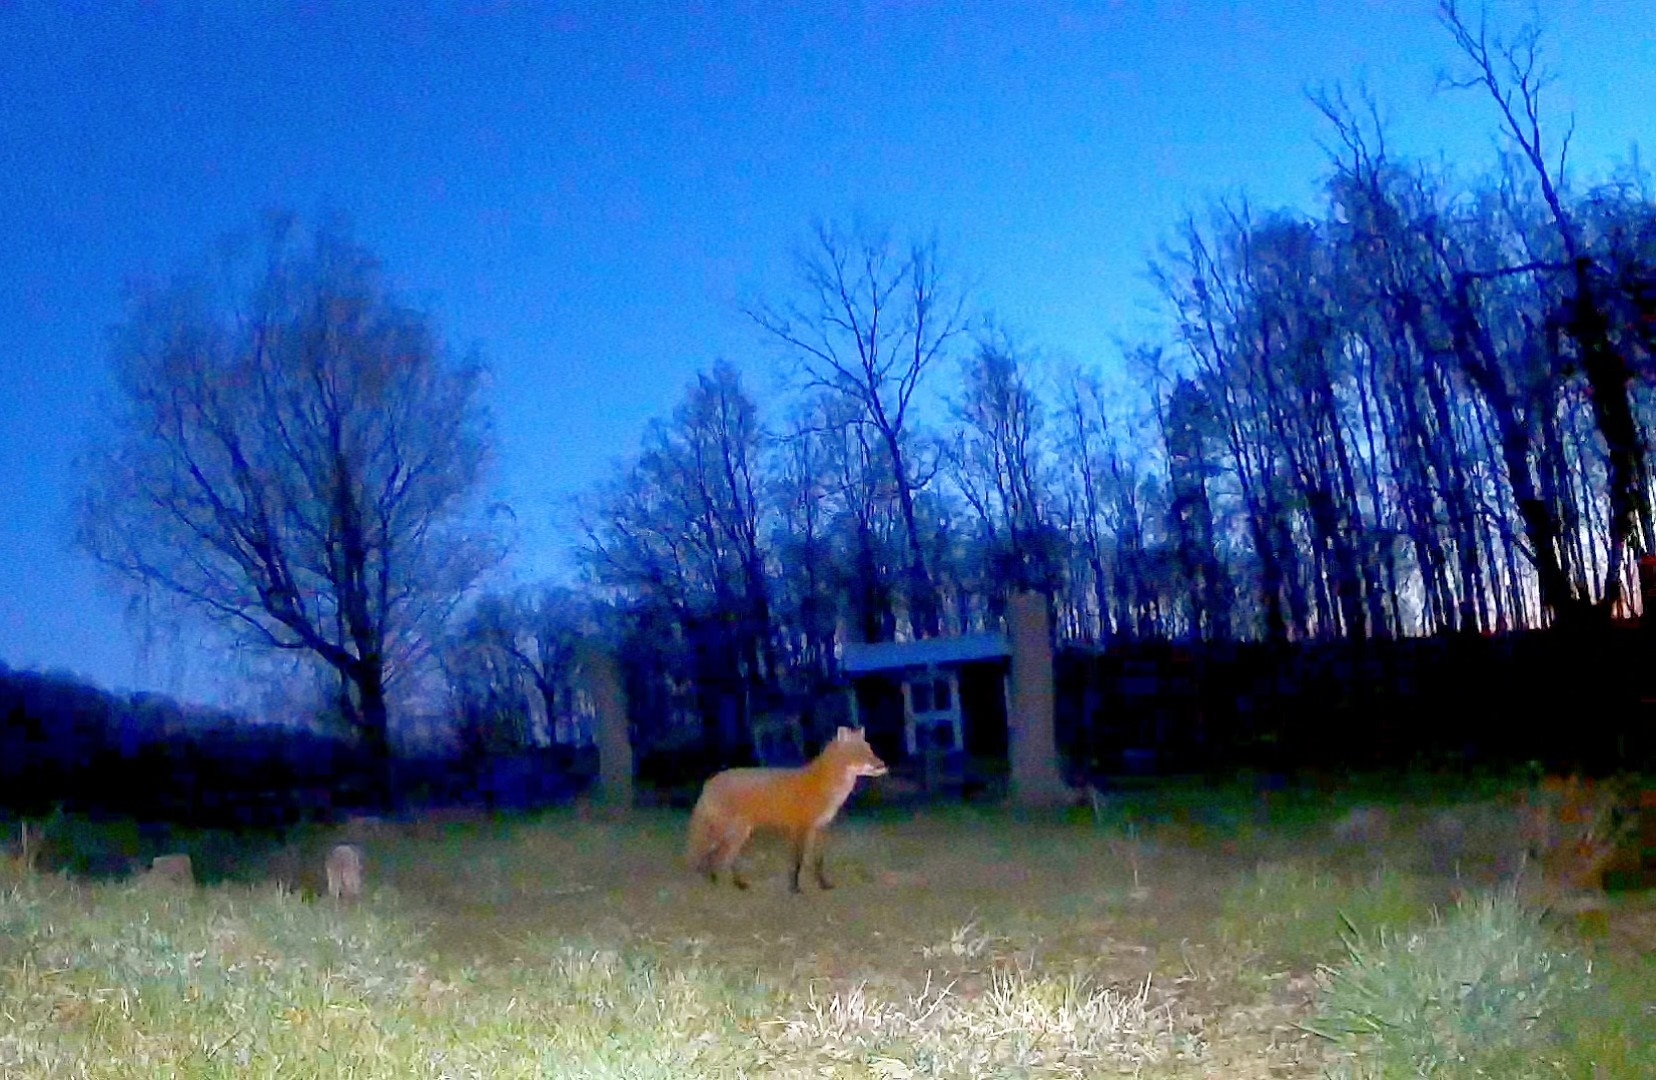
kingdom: Animalia
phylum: Chordata
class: Mammalia
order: Carnivora
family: Canidae
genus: Vulpes
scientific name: Vulpes vulpes
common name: Red fox
